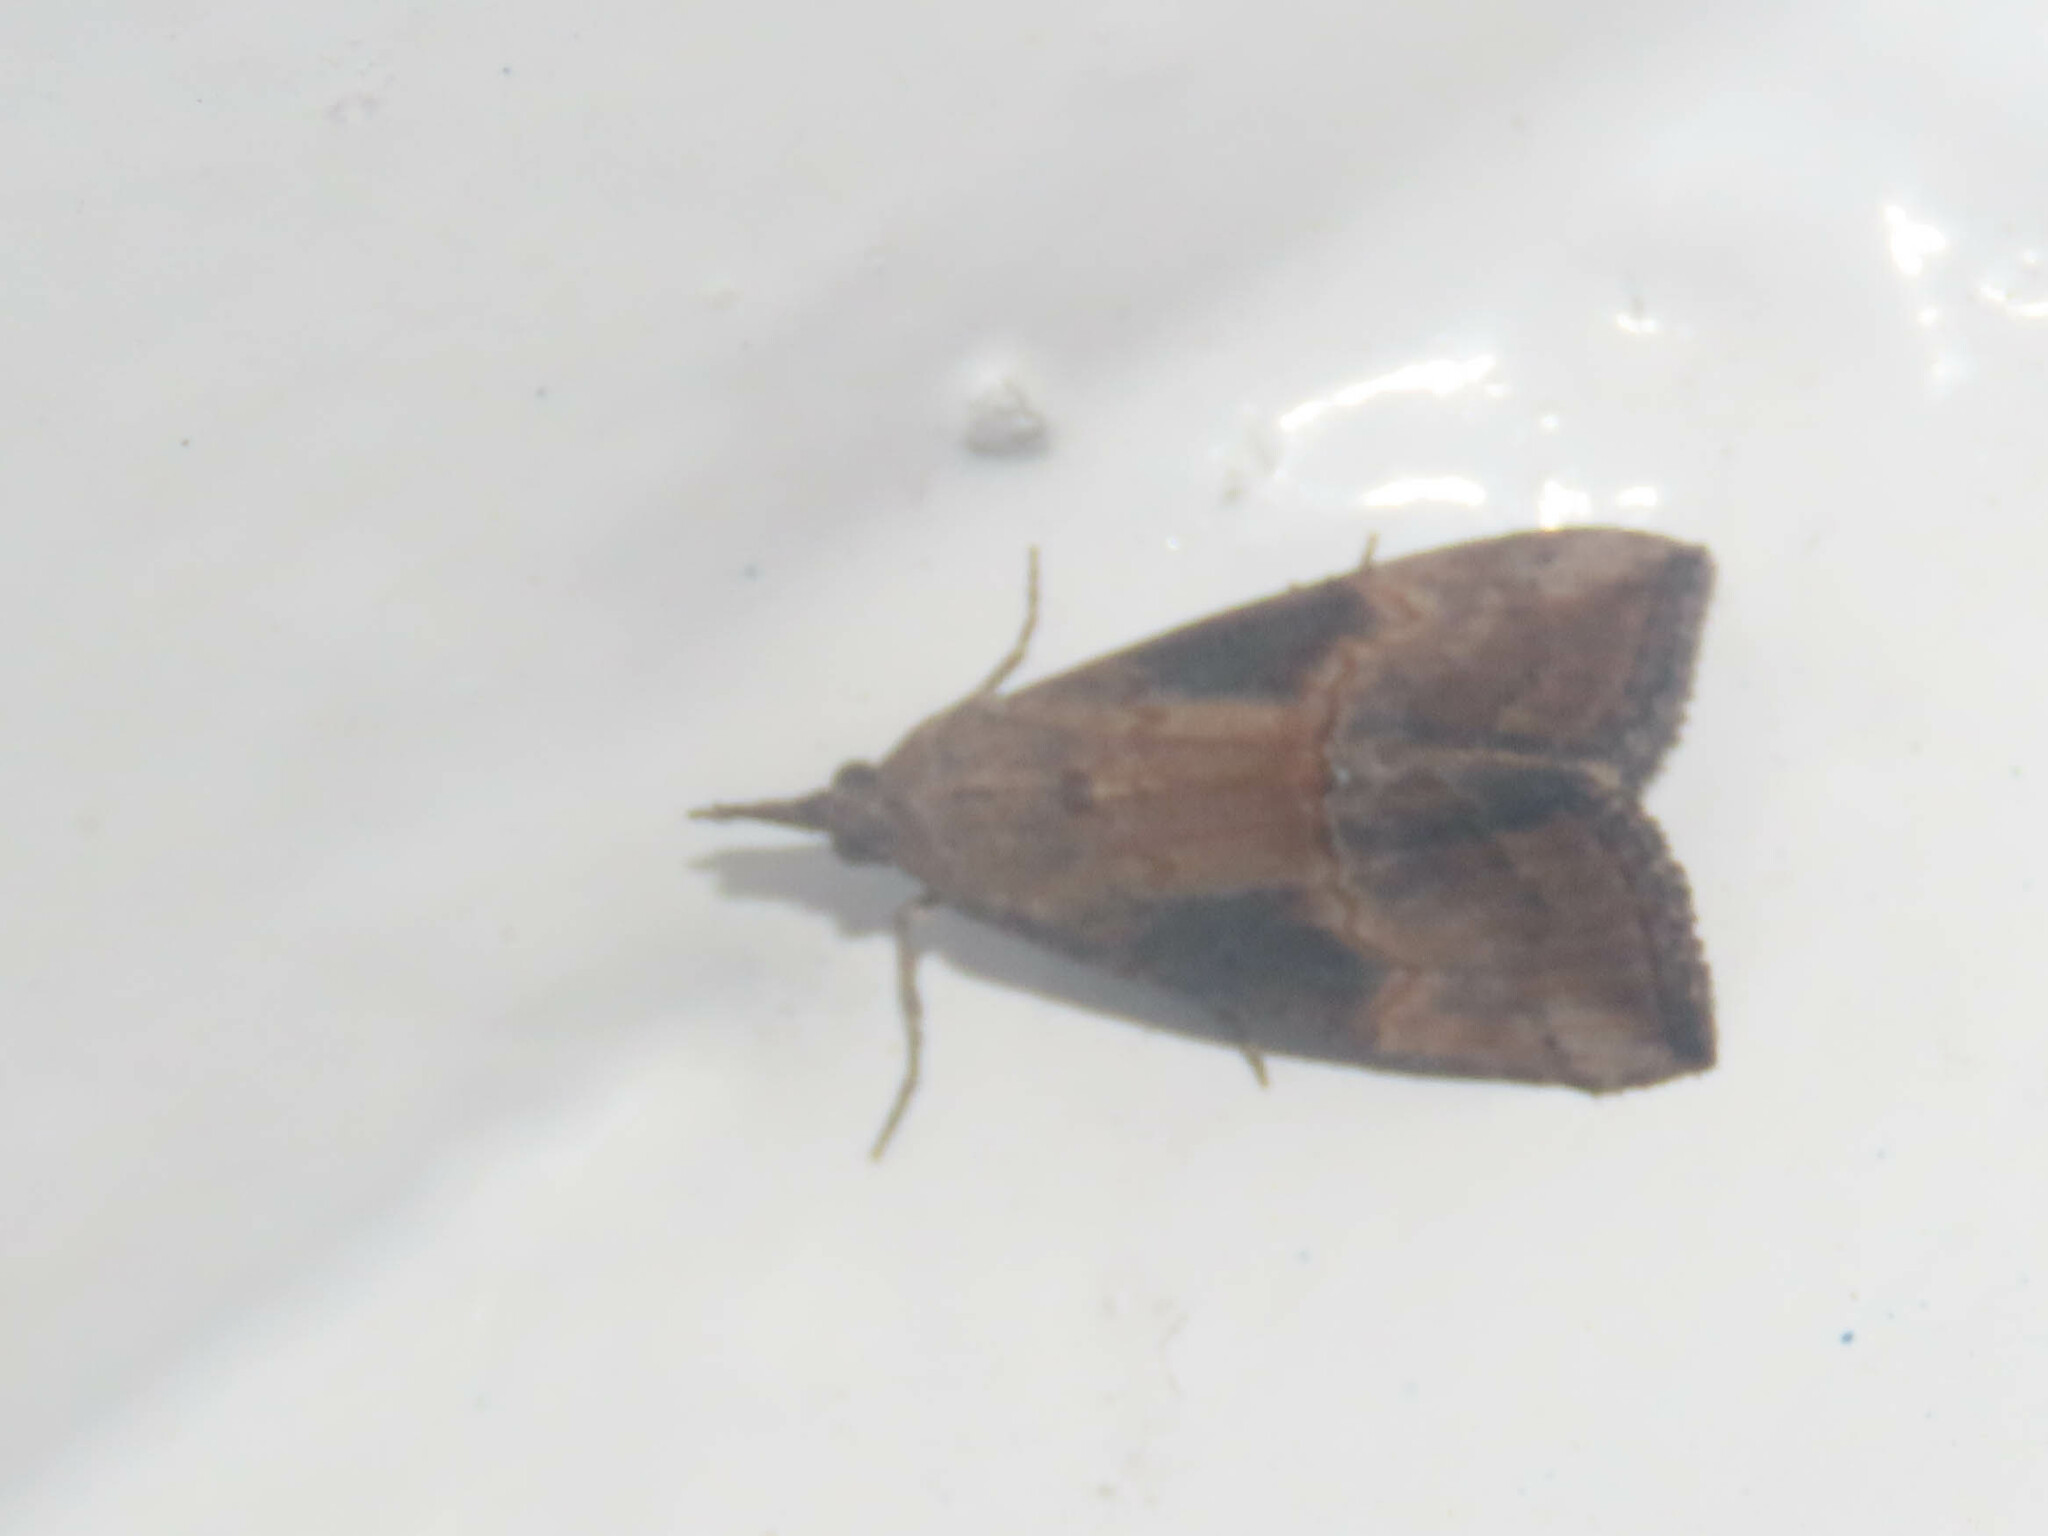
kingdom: Animalia
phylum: Arthropoda
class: Insecta
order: Lepidoptera
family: Erebidae
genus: Hypena
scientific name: Hypena scabra
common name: Green cloverworm
